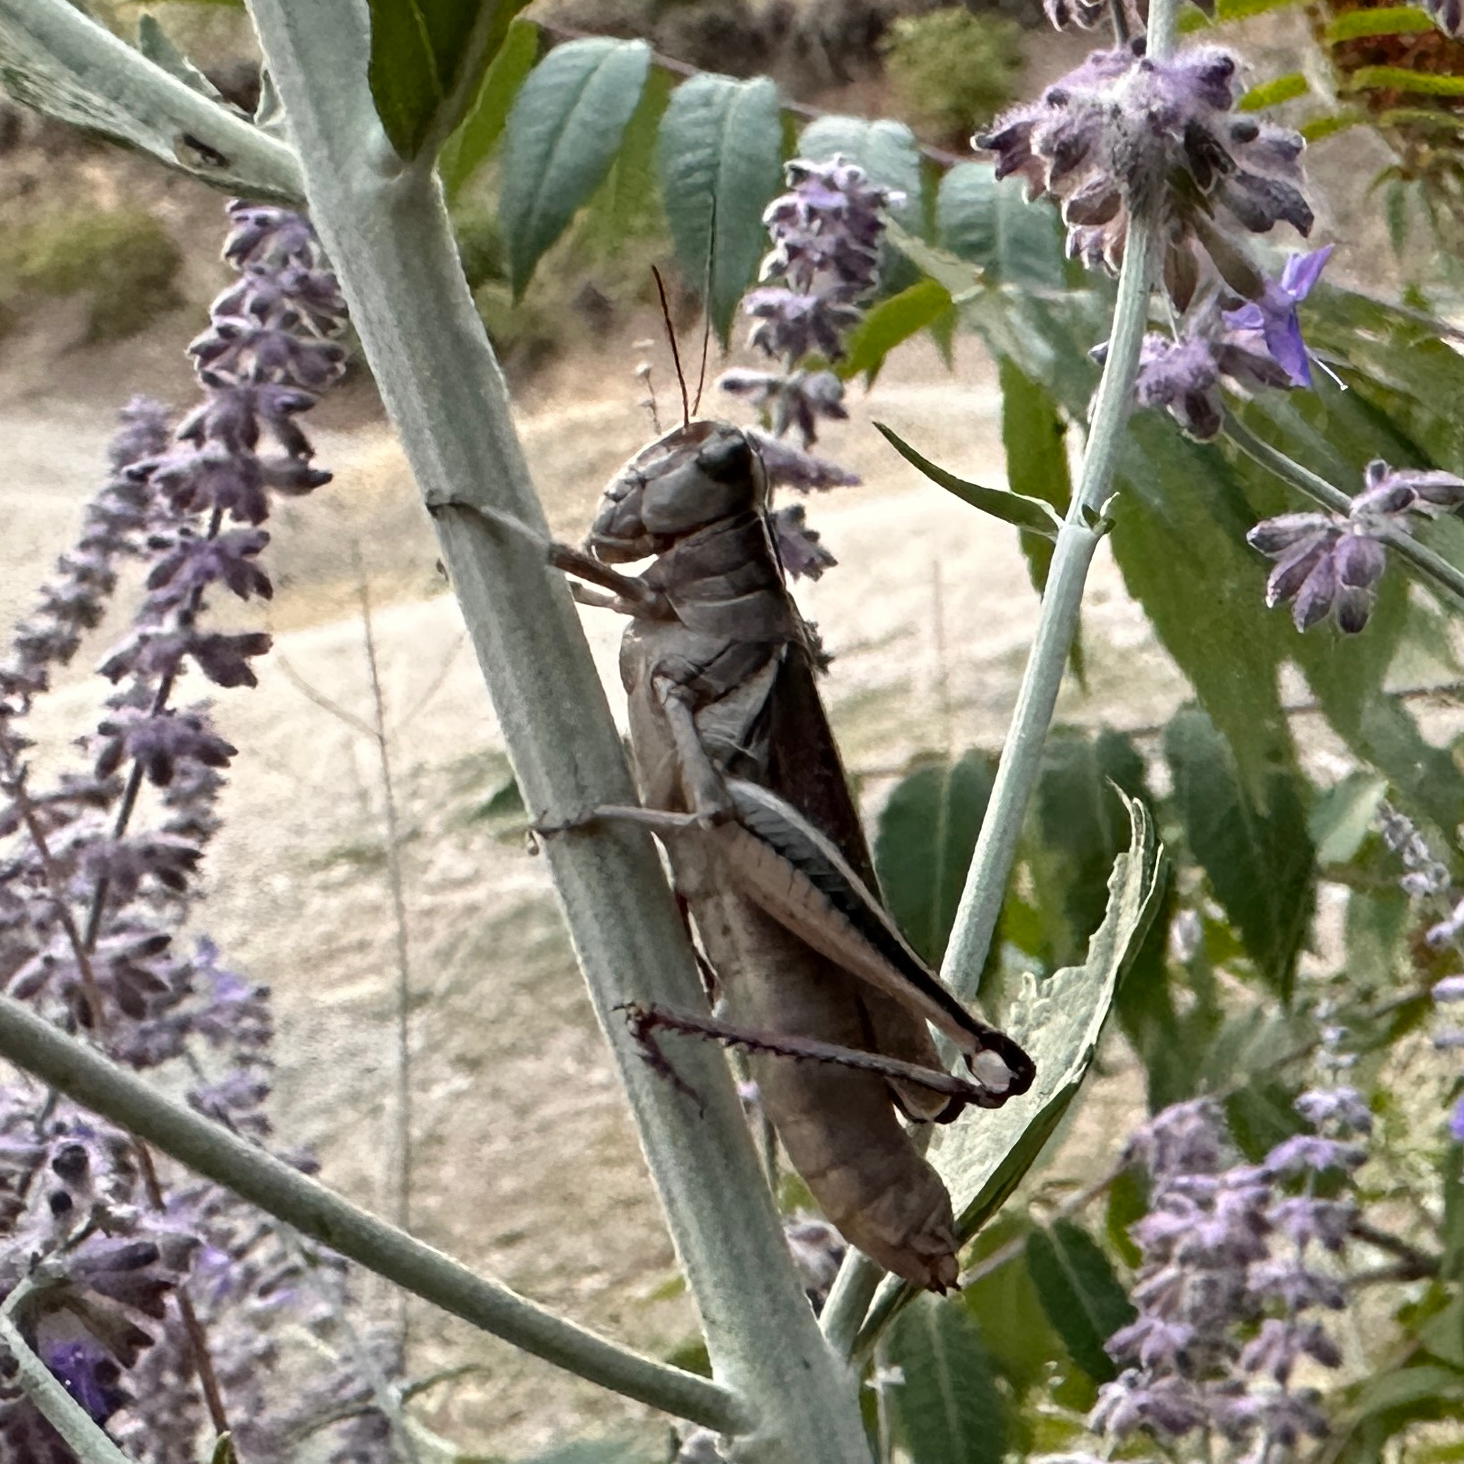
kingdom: Animalia
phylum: Arthropoda
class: Insecta
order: Orthoptera
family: Acrididae
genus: Melanoplus
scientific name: Melanoplus bivittatus
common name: Two-striped grasshopper
